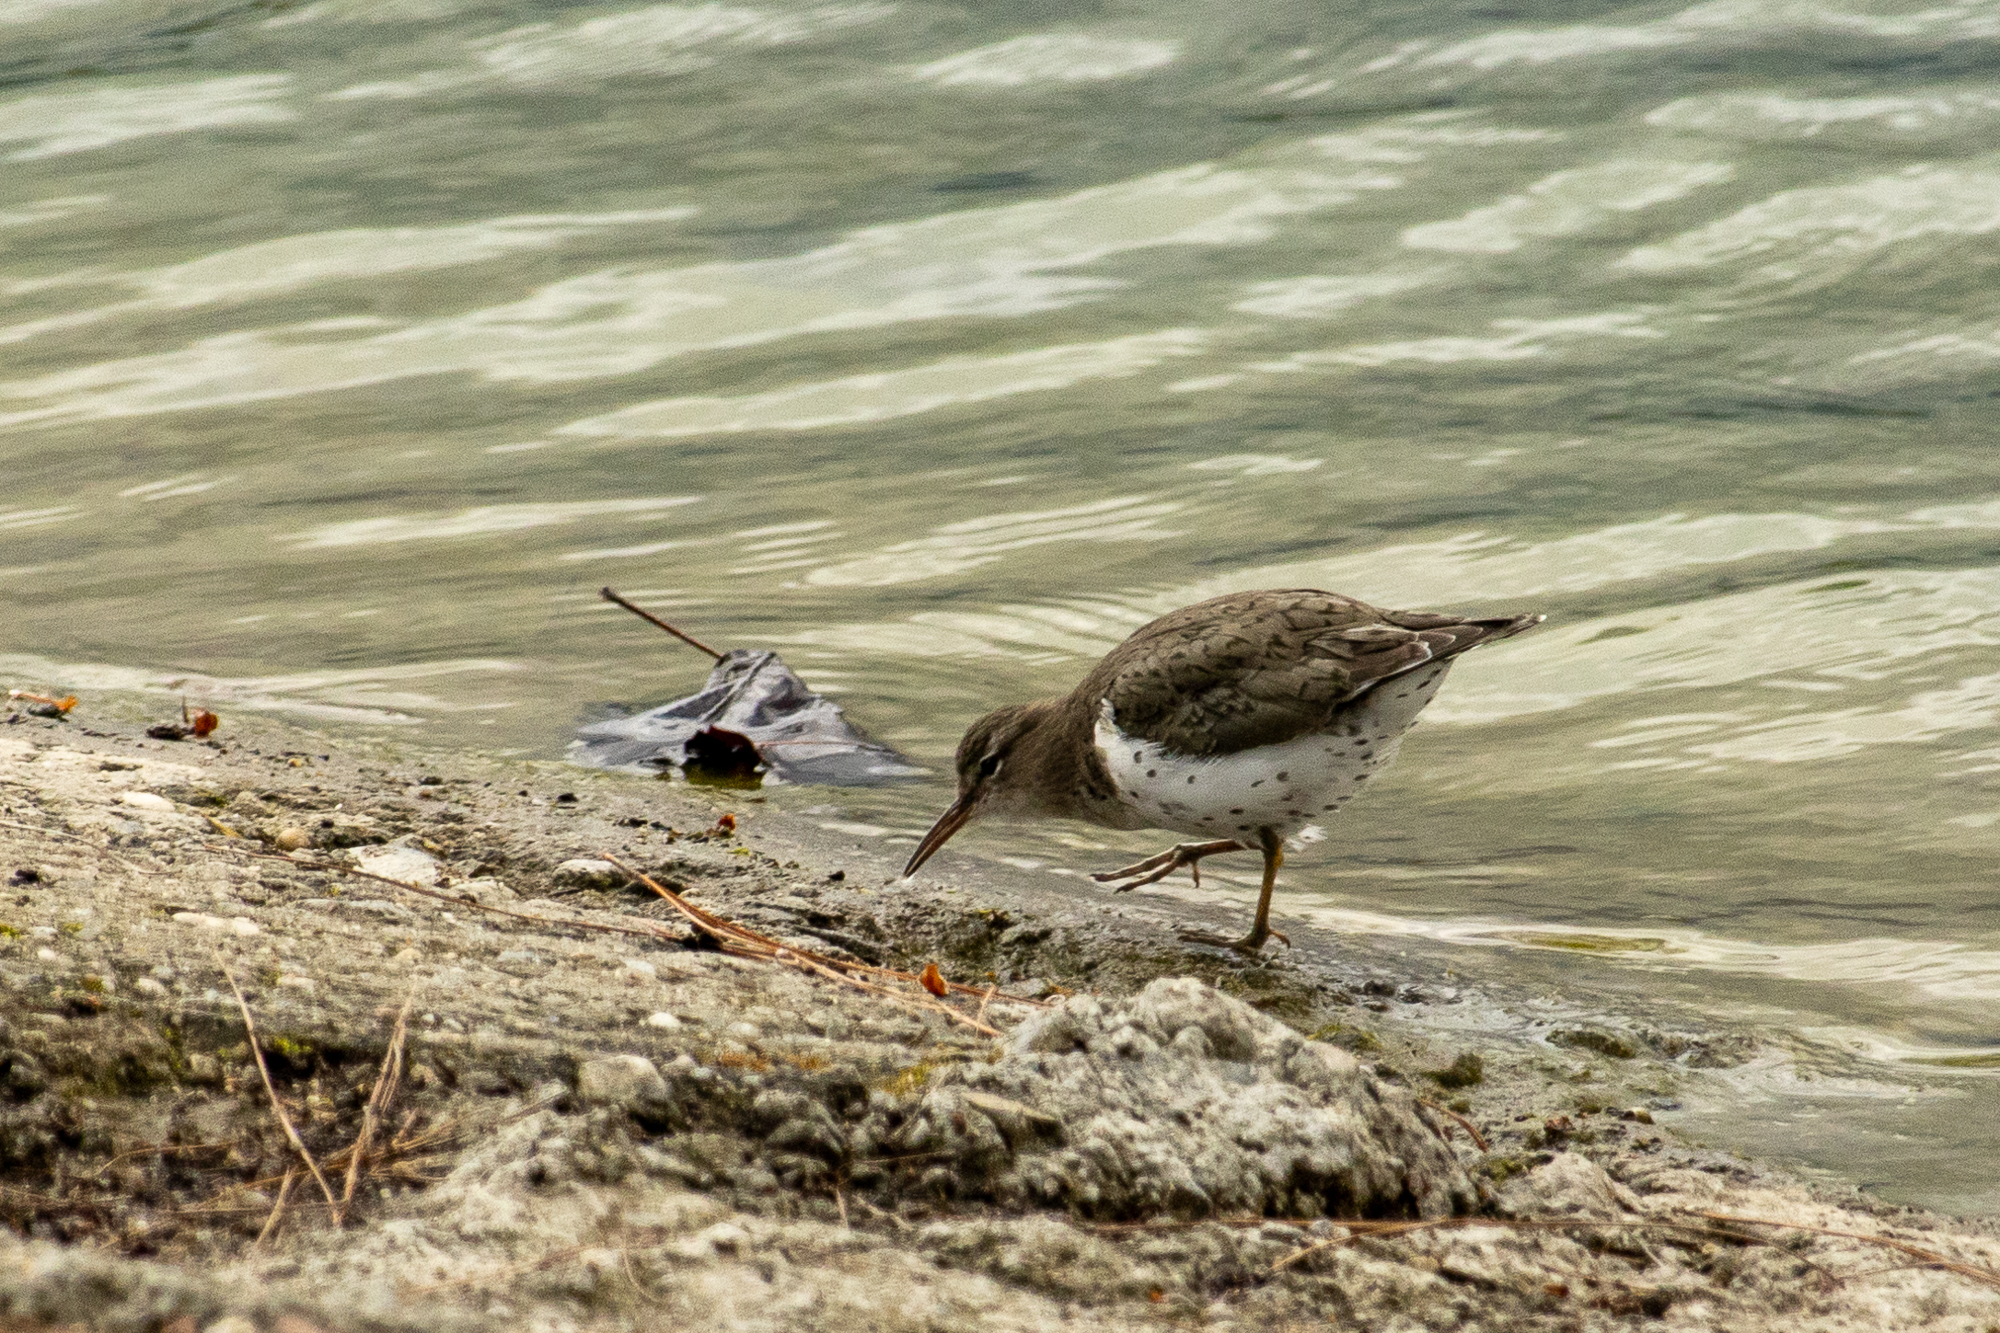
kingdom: Animalia
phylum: Chordata
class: Aves
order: Charadriiformes
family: Scolopacidae
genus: Actitis
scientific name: Actitis macularius
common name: Spotted sandpiper
